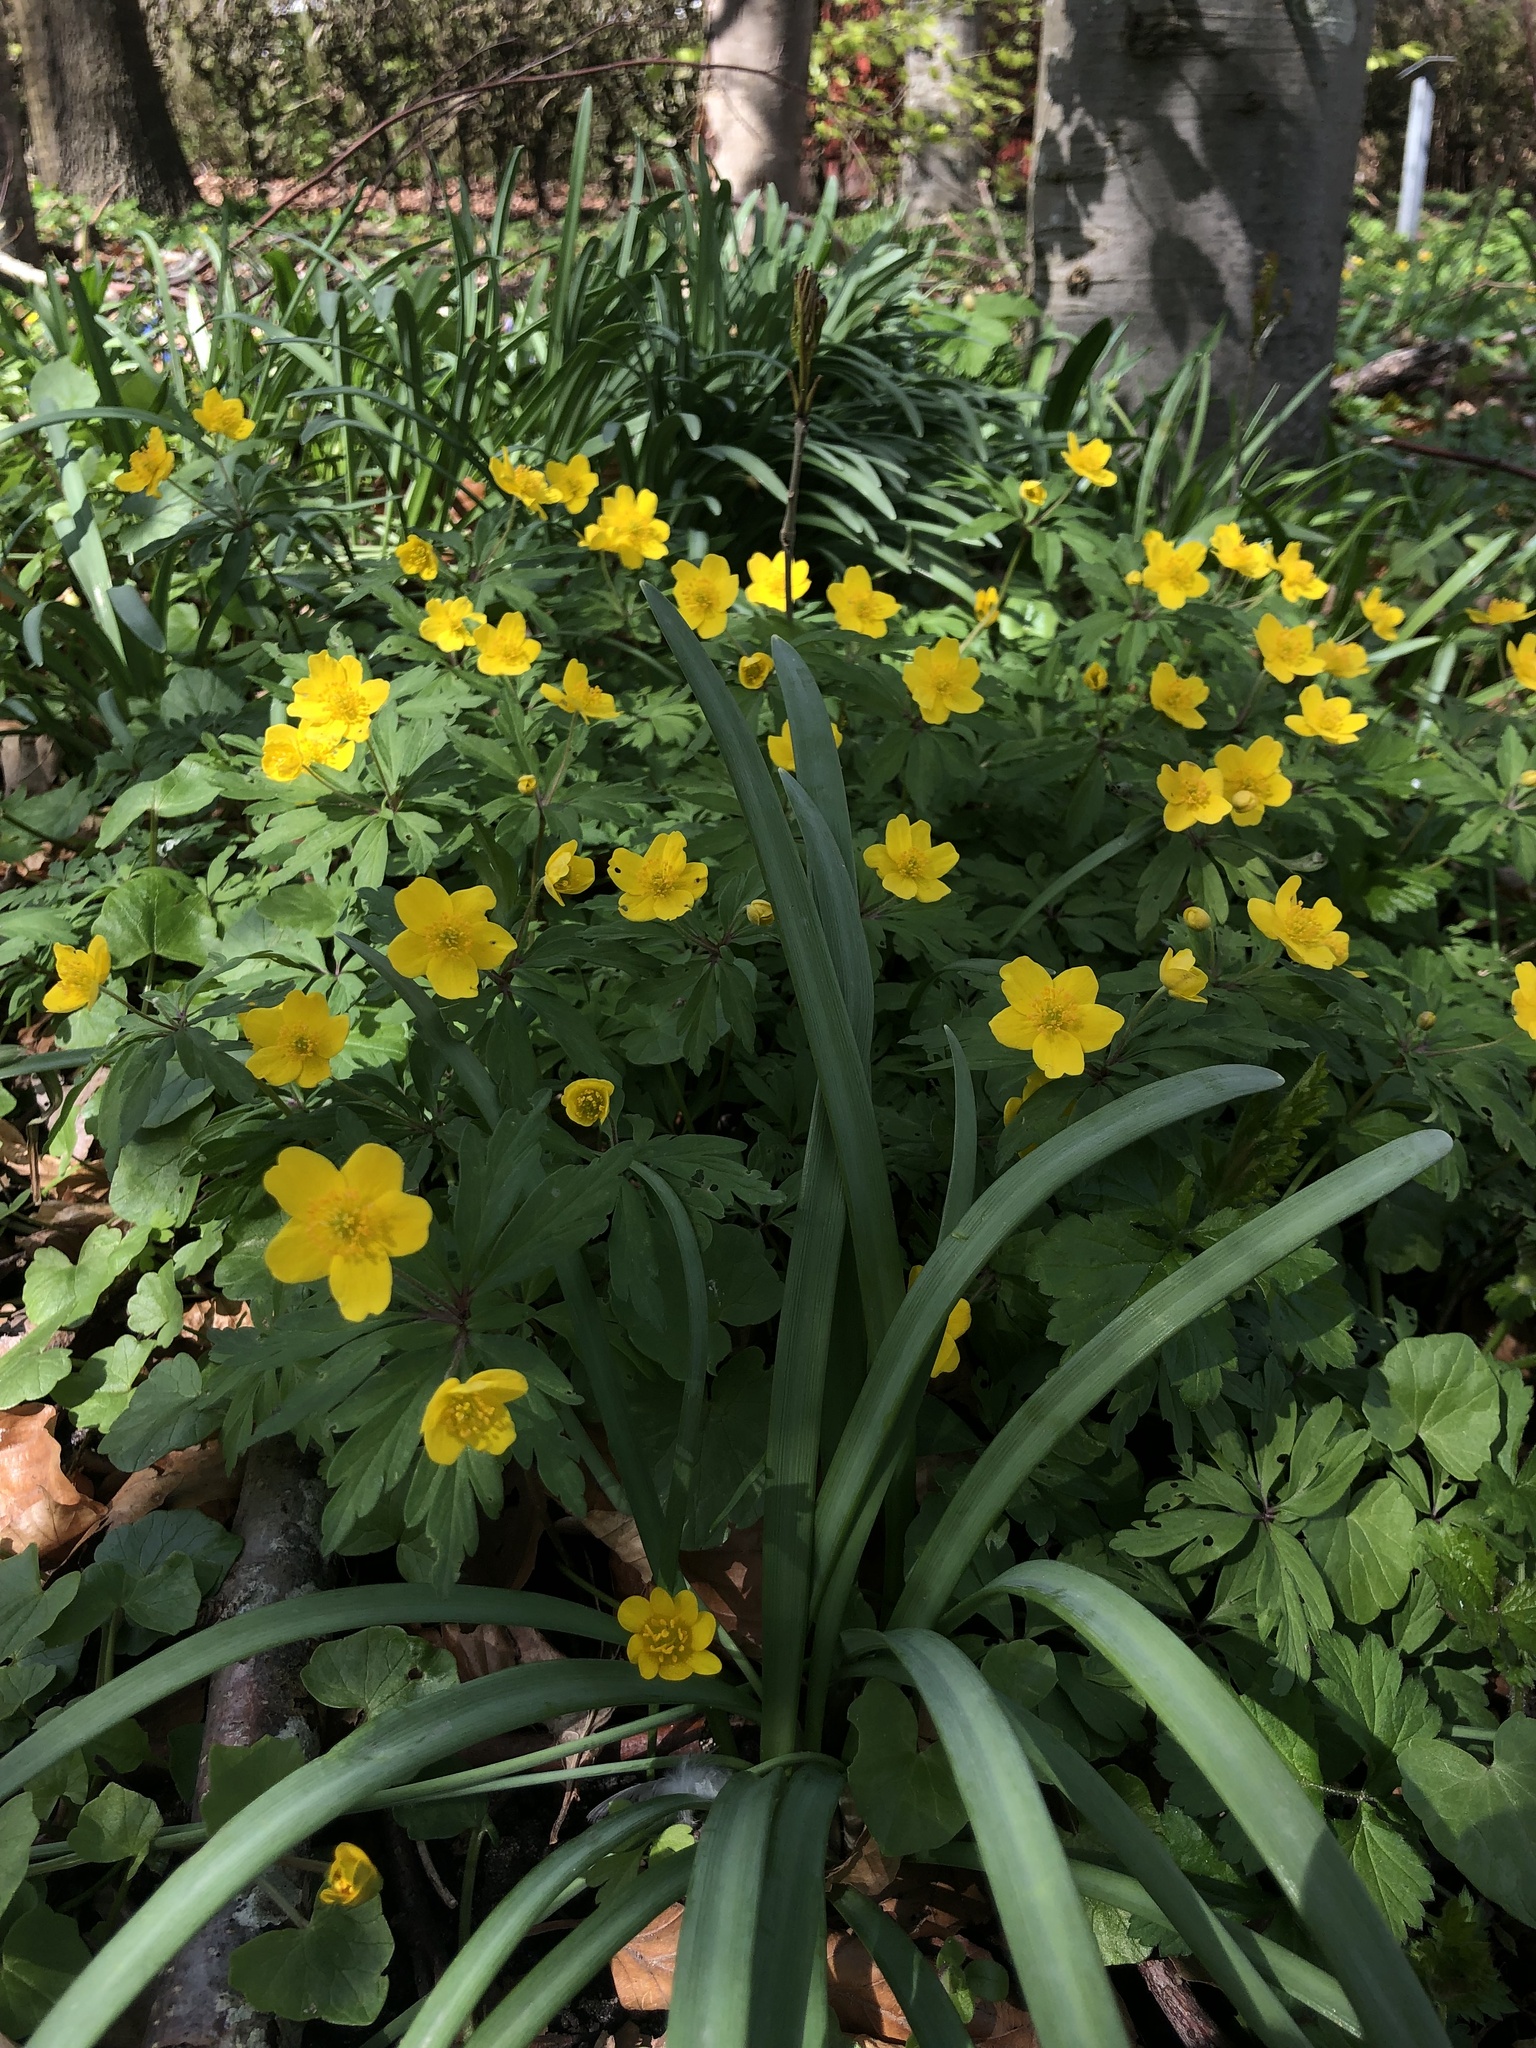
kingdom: Plantae
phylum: Tracheophyta
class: Magnoliopsida
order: Ranunculales
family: Ranunculaceae
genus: Anemone
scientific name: Anemone ranunculoides
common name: Yellow anemone
